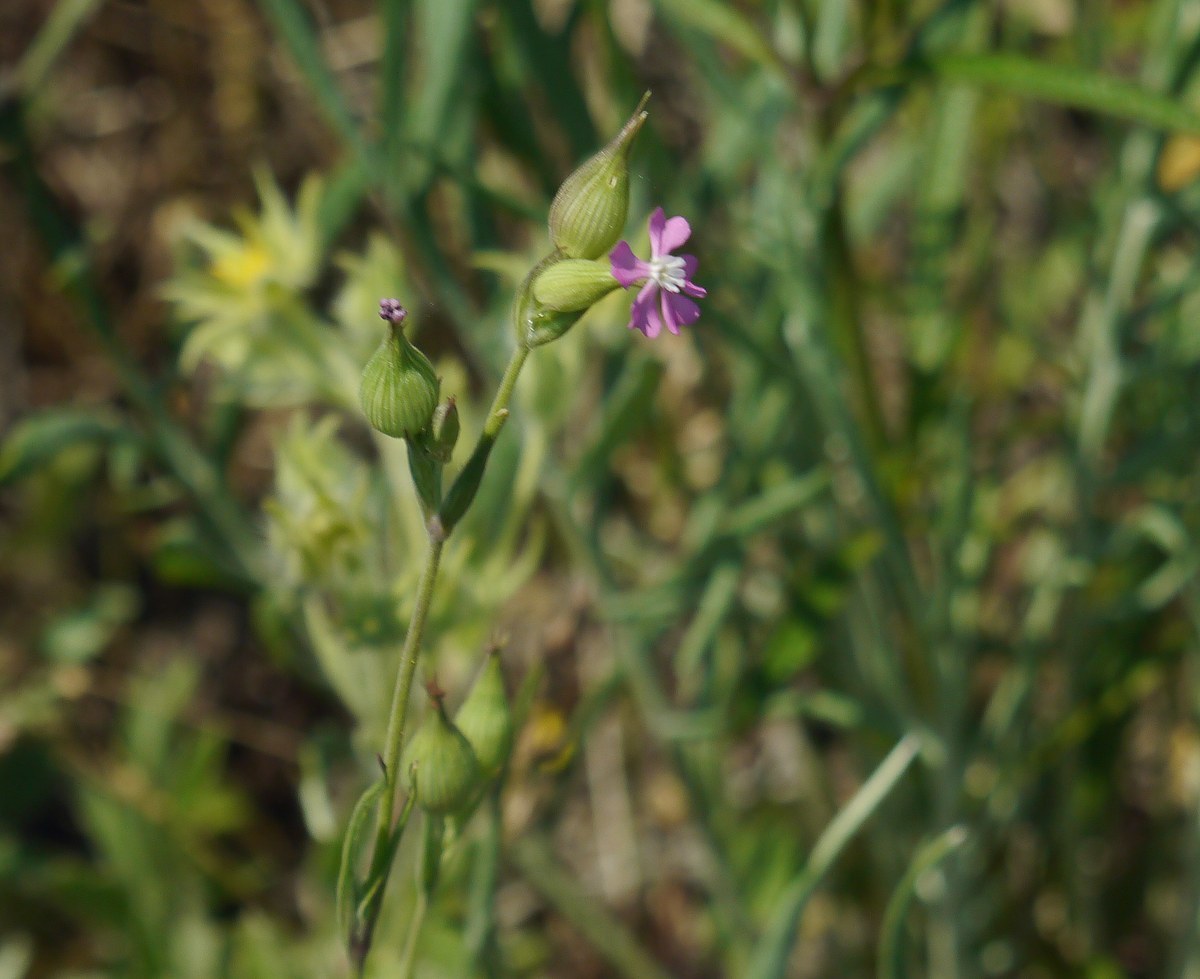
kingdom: Plantae
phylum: Tracheophyta
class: Magnoliopsida
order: Caryophyllales
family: Caryophyllaceae
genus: Silene
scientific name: Silene subconica
